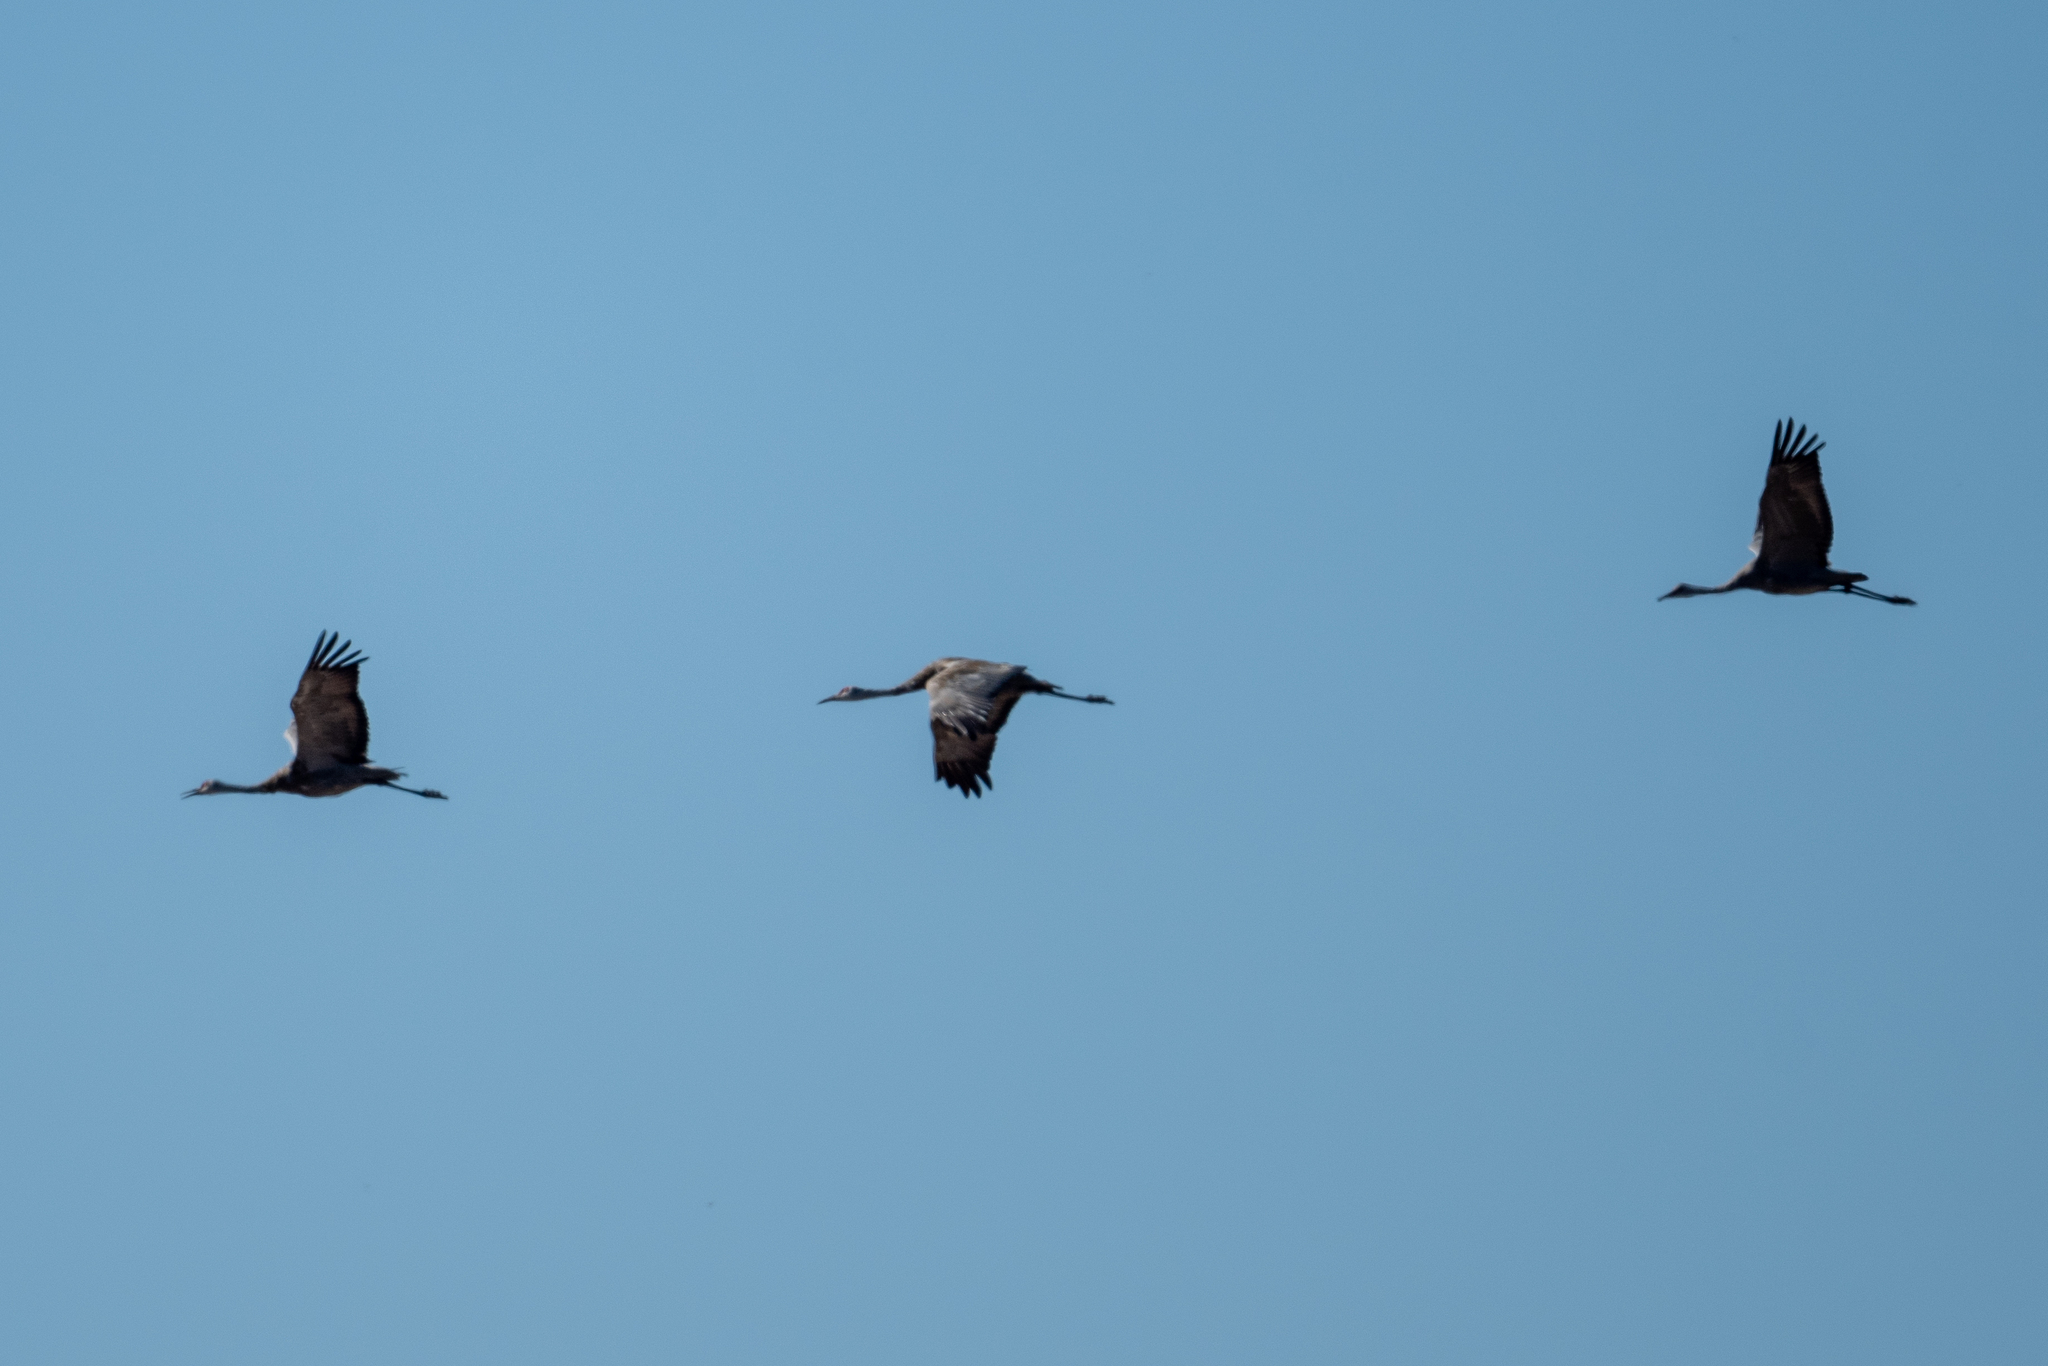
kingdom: Animalia
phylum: Chordata
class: Aves
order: Gruiformes
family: Gruidae
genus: Grus
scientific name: Grus canadensis
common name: Sandhill crane
